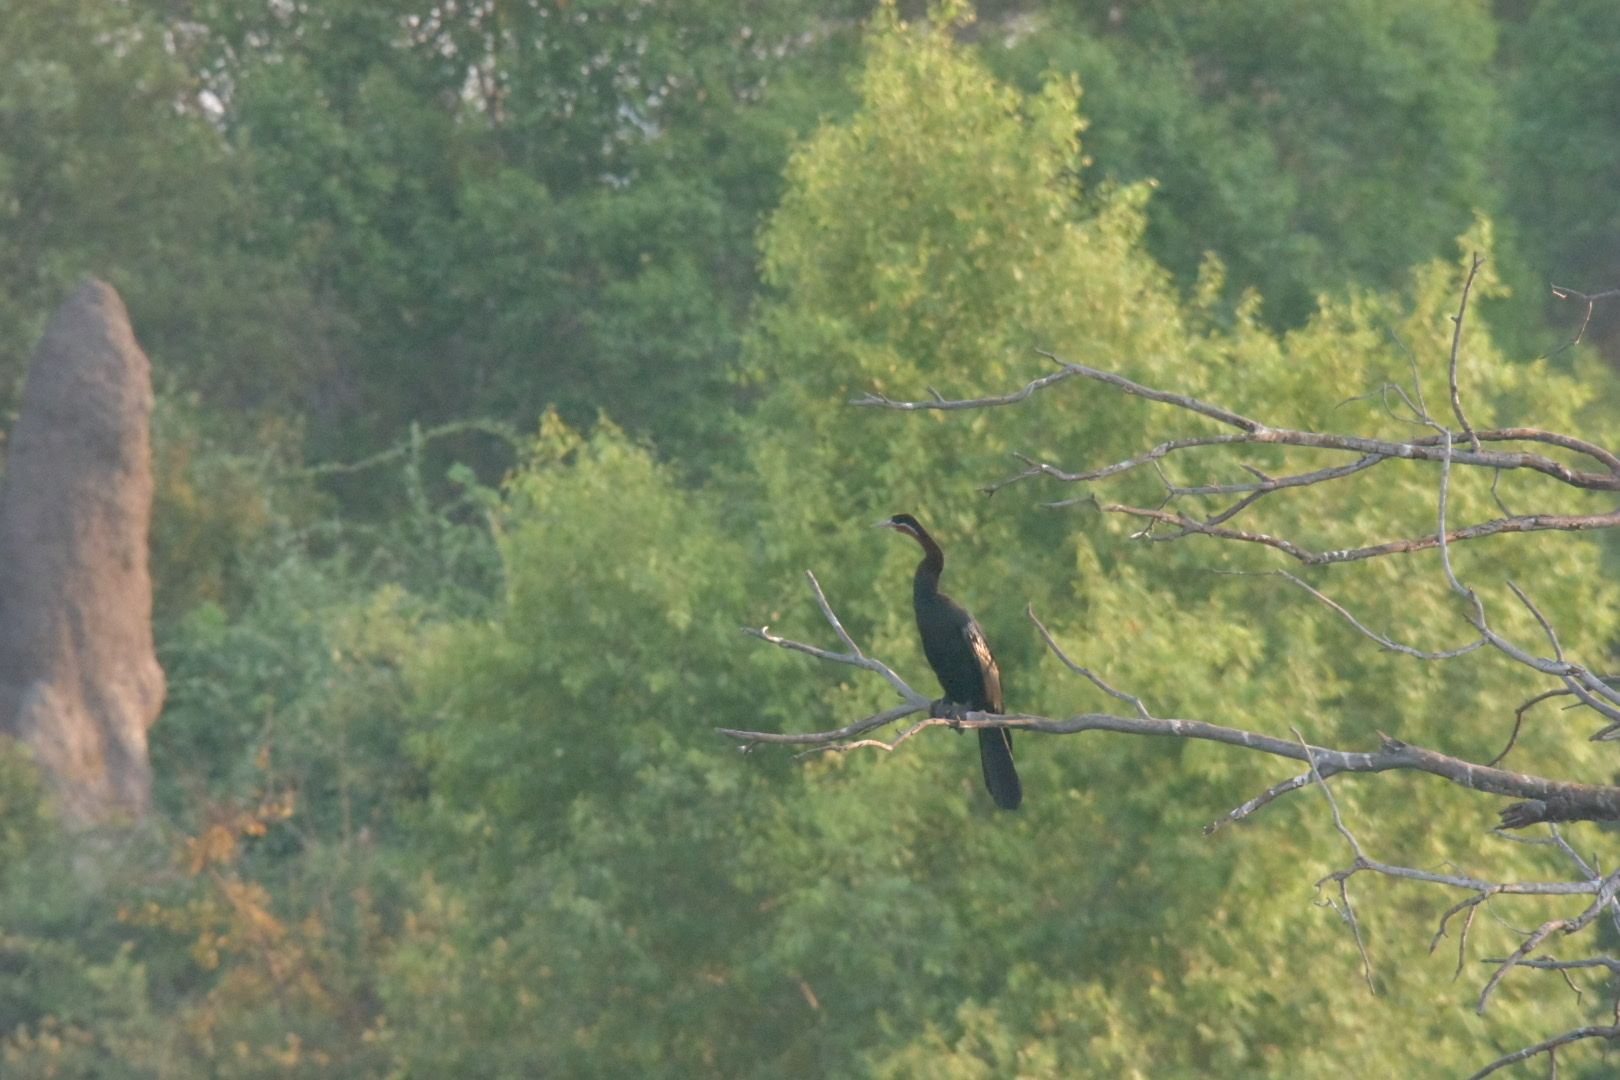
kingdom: Animalia
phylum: Chordata
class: Aves
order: Suliformes
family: Anhingidae
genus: Anhinga
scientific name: Anhinga rufa
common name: African darter
